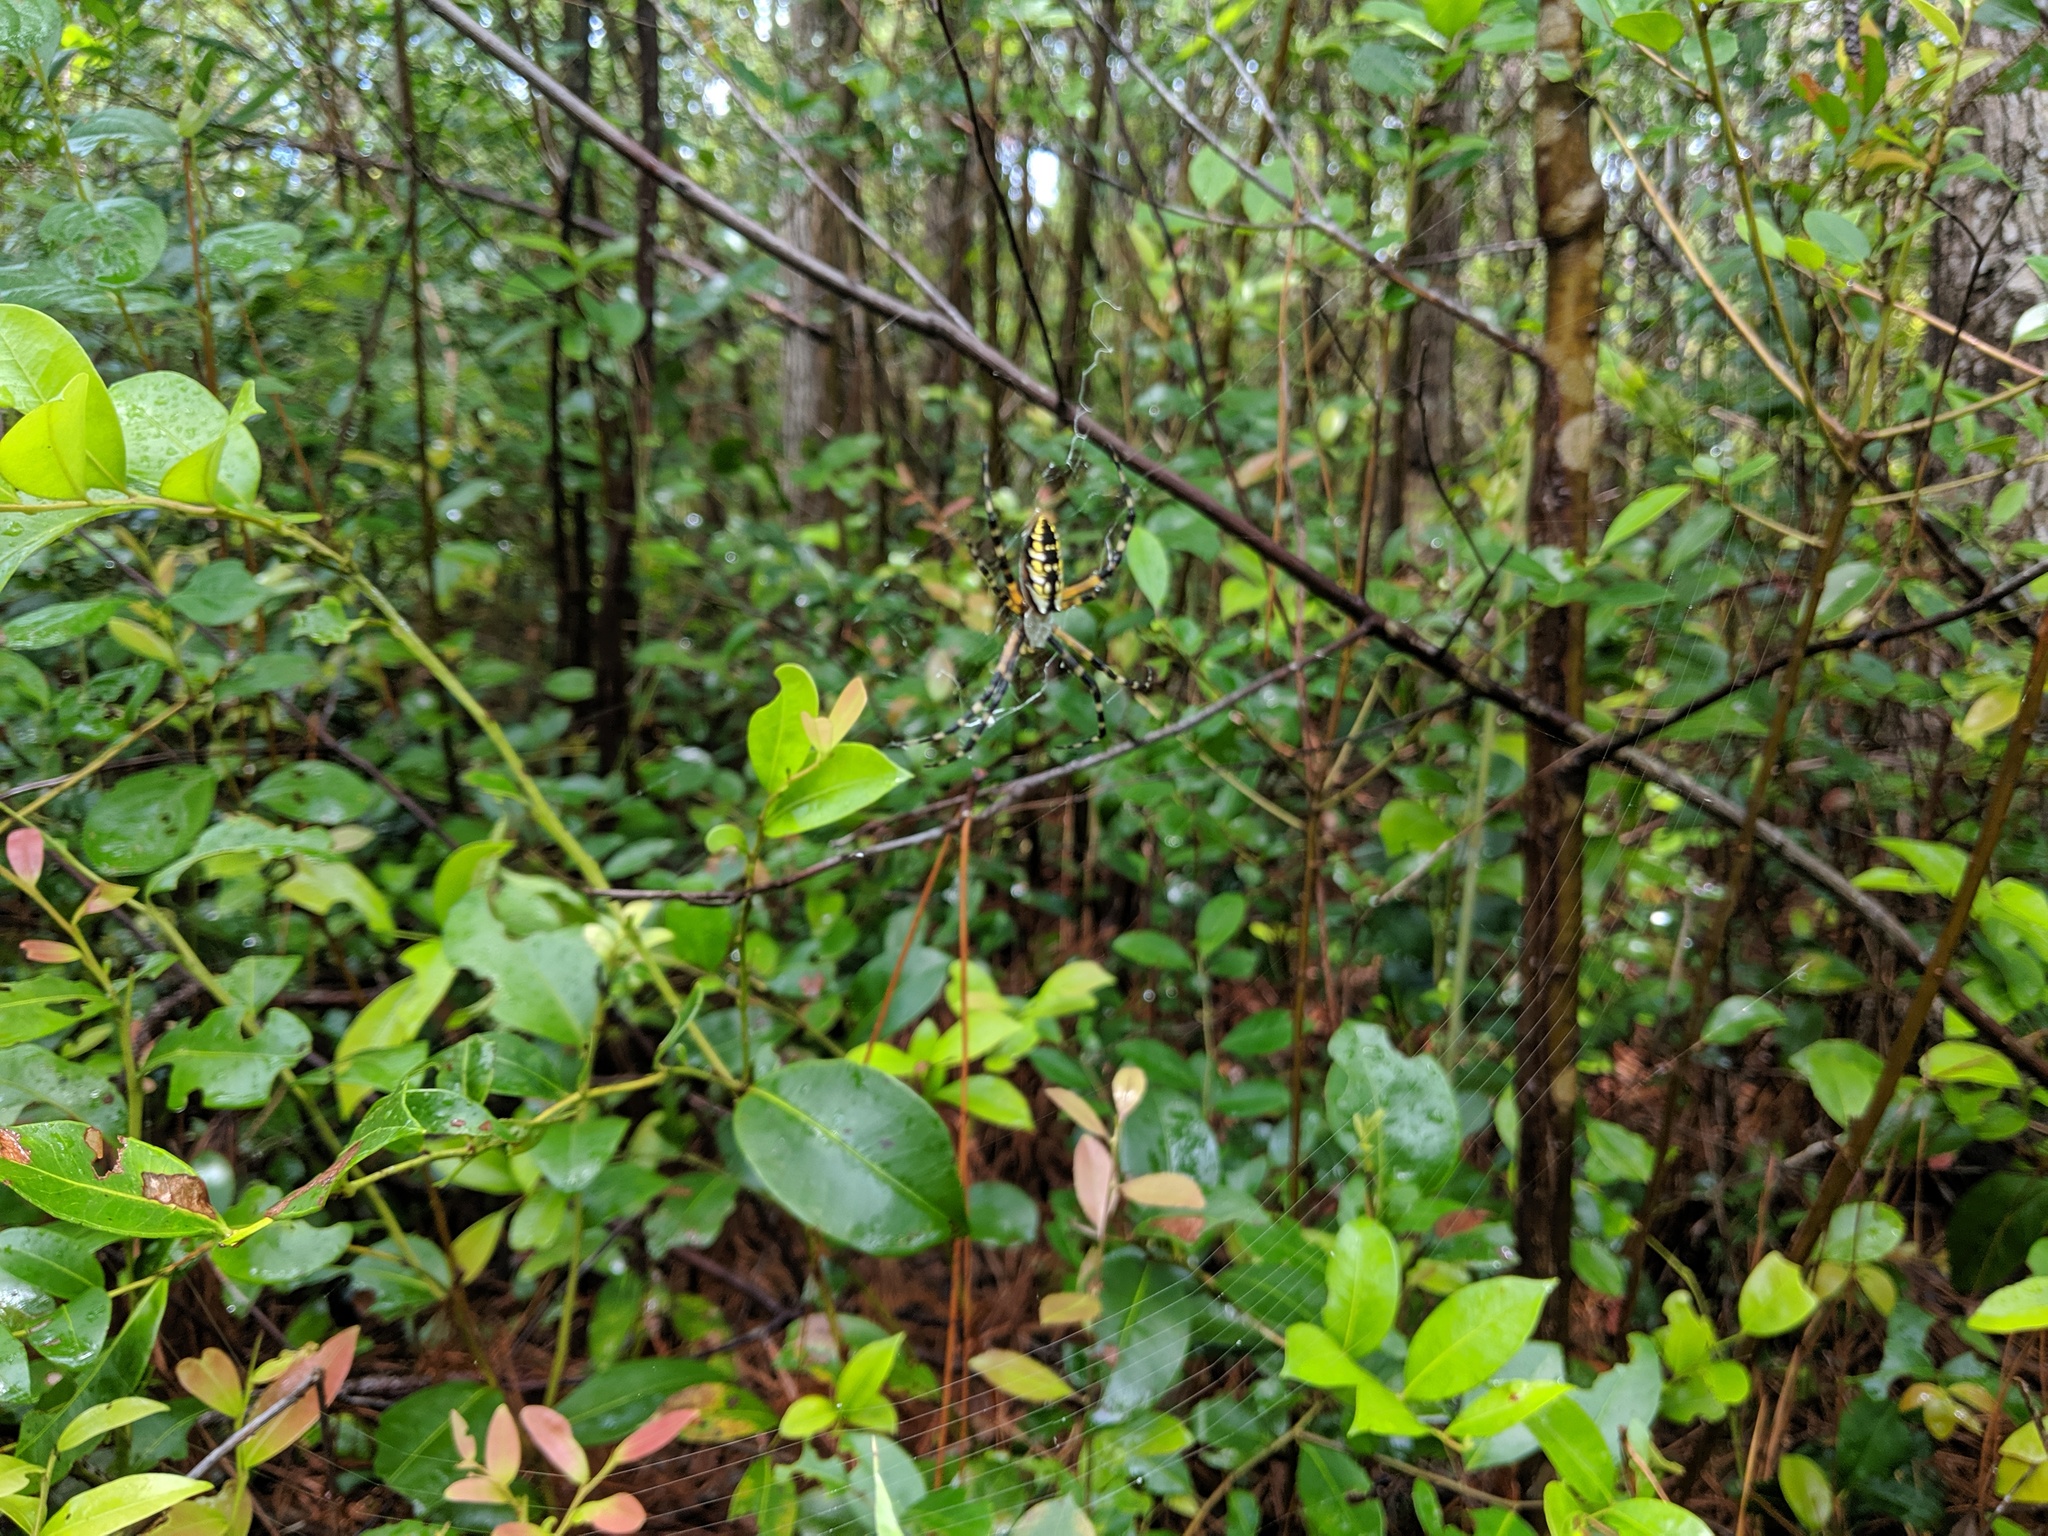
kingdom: Animalia
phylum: Arthropoda
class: Arachnida
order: Araneae
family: Araneidae
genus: Argiope
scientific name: Argiope aurantia
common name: Orb weavers
